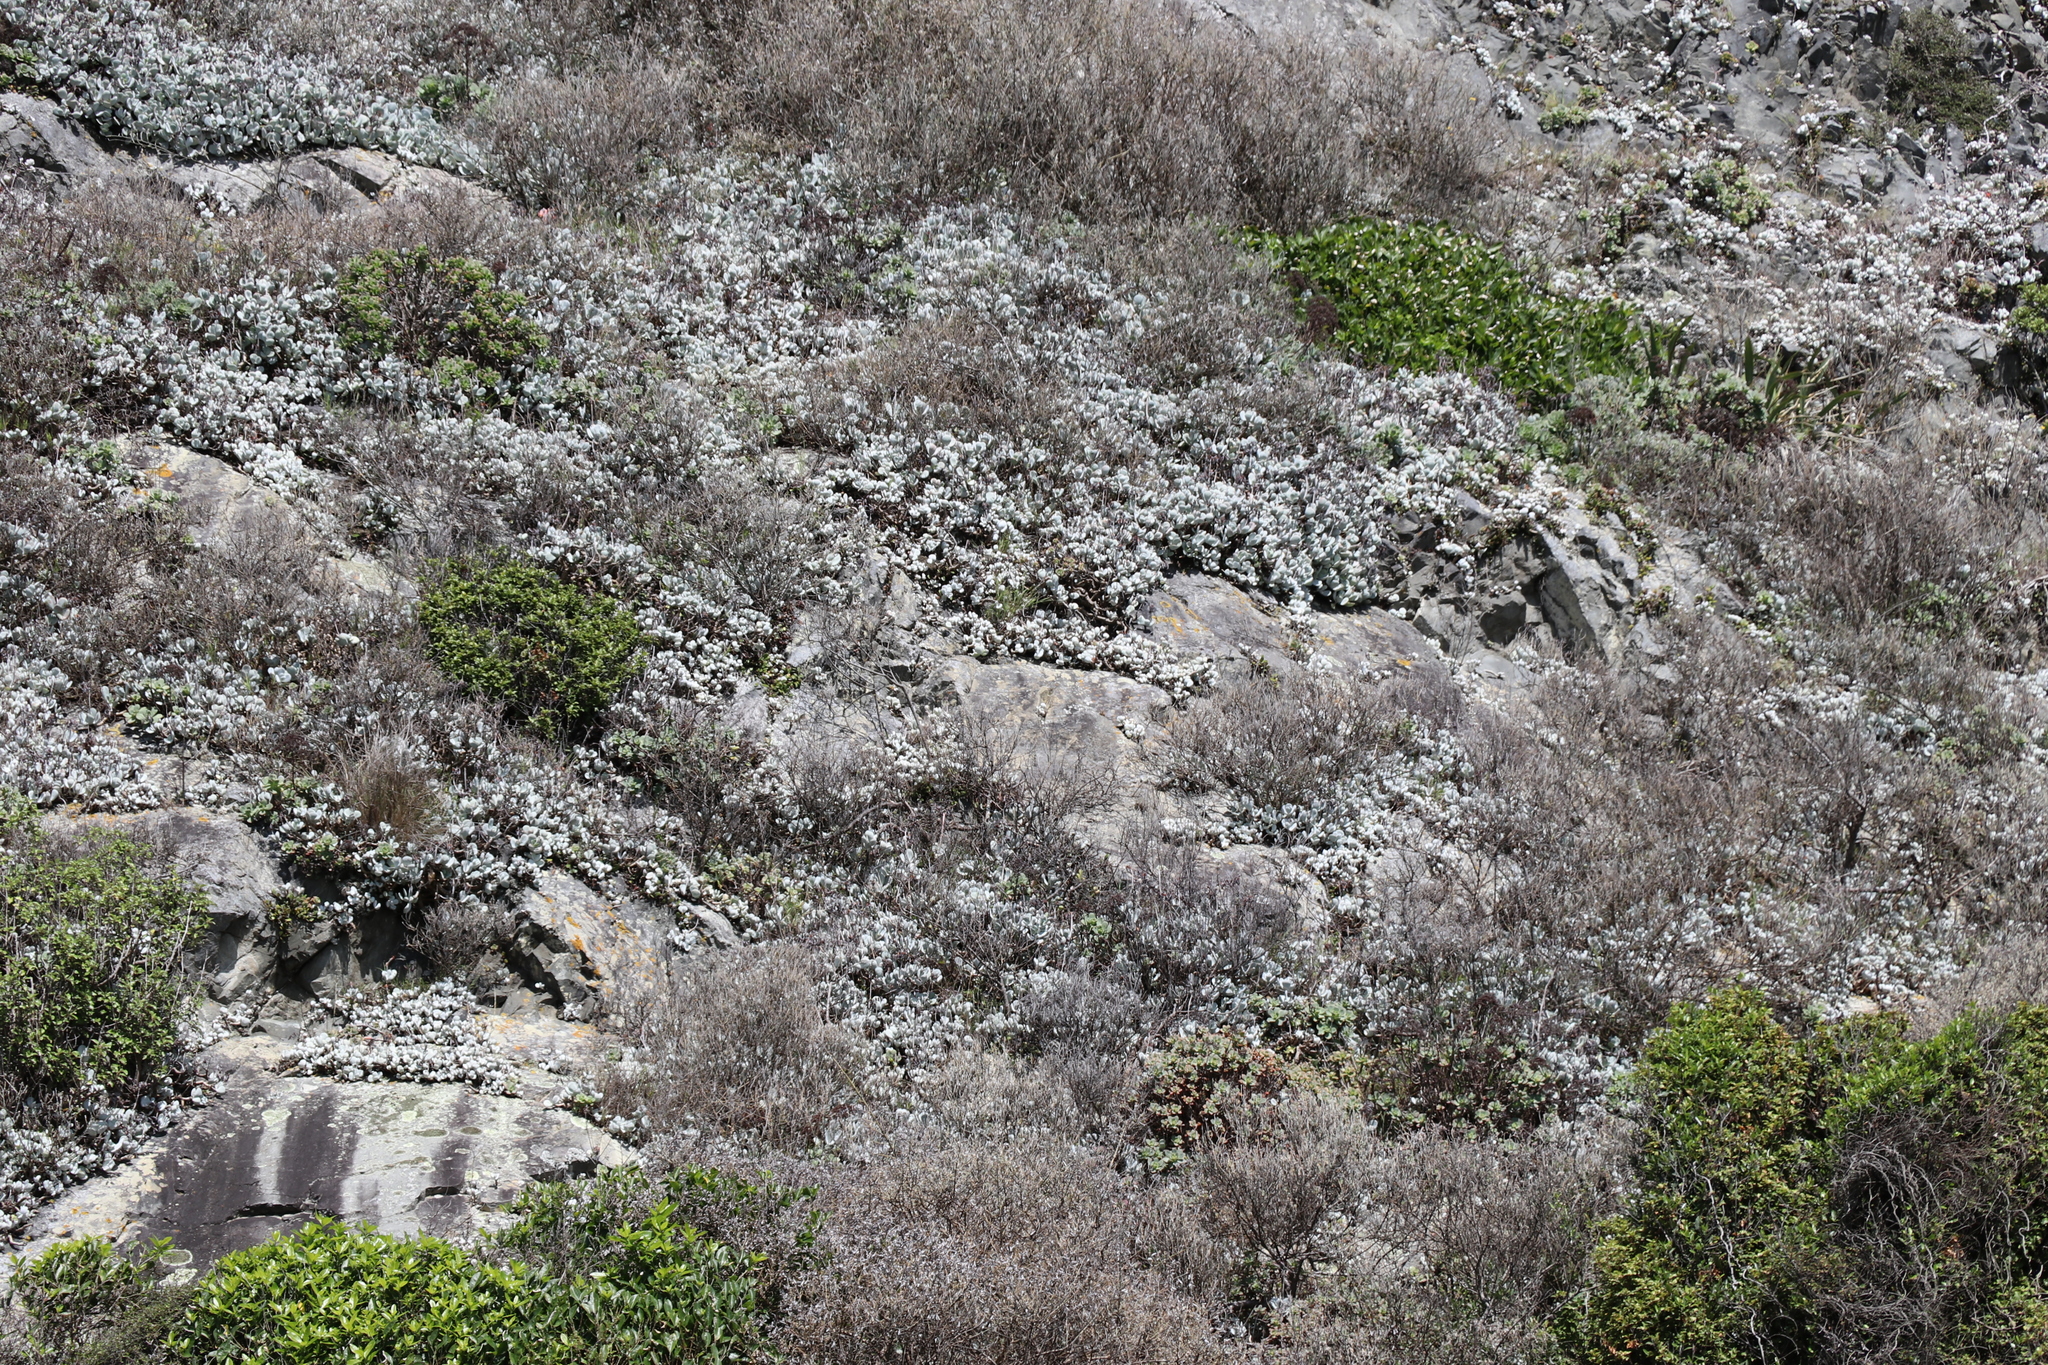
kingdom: Plantae
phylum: Tracheophyta
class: Magnoliopsida
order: Saxifragales
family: Crassulaceae
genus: Cotyledon
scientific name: Cotyledon orbiculata
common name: Pig's ear
